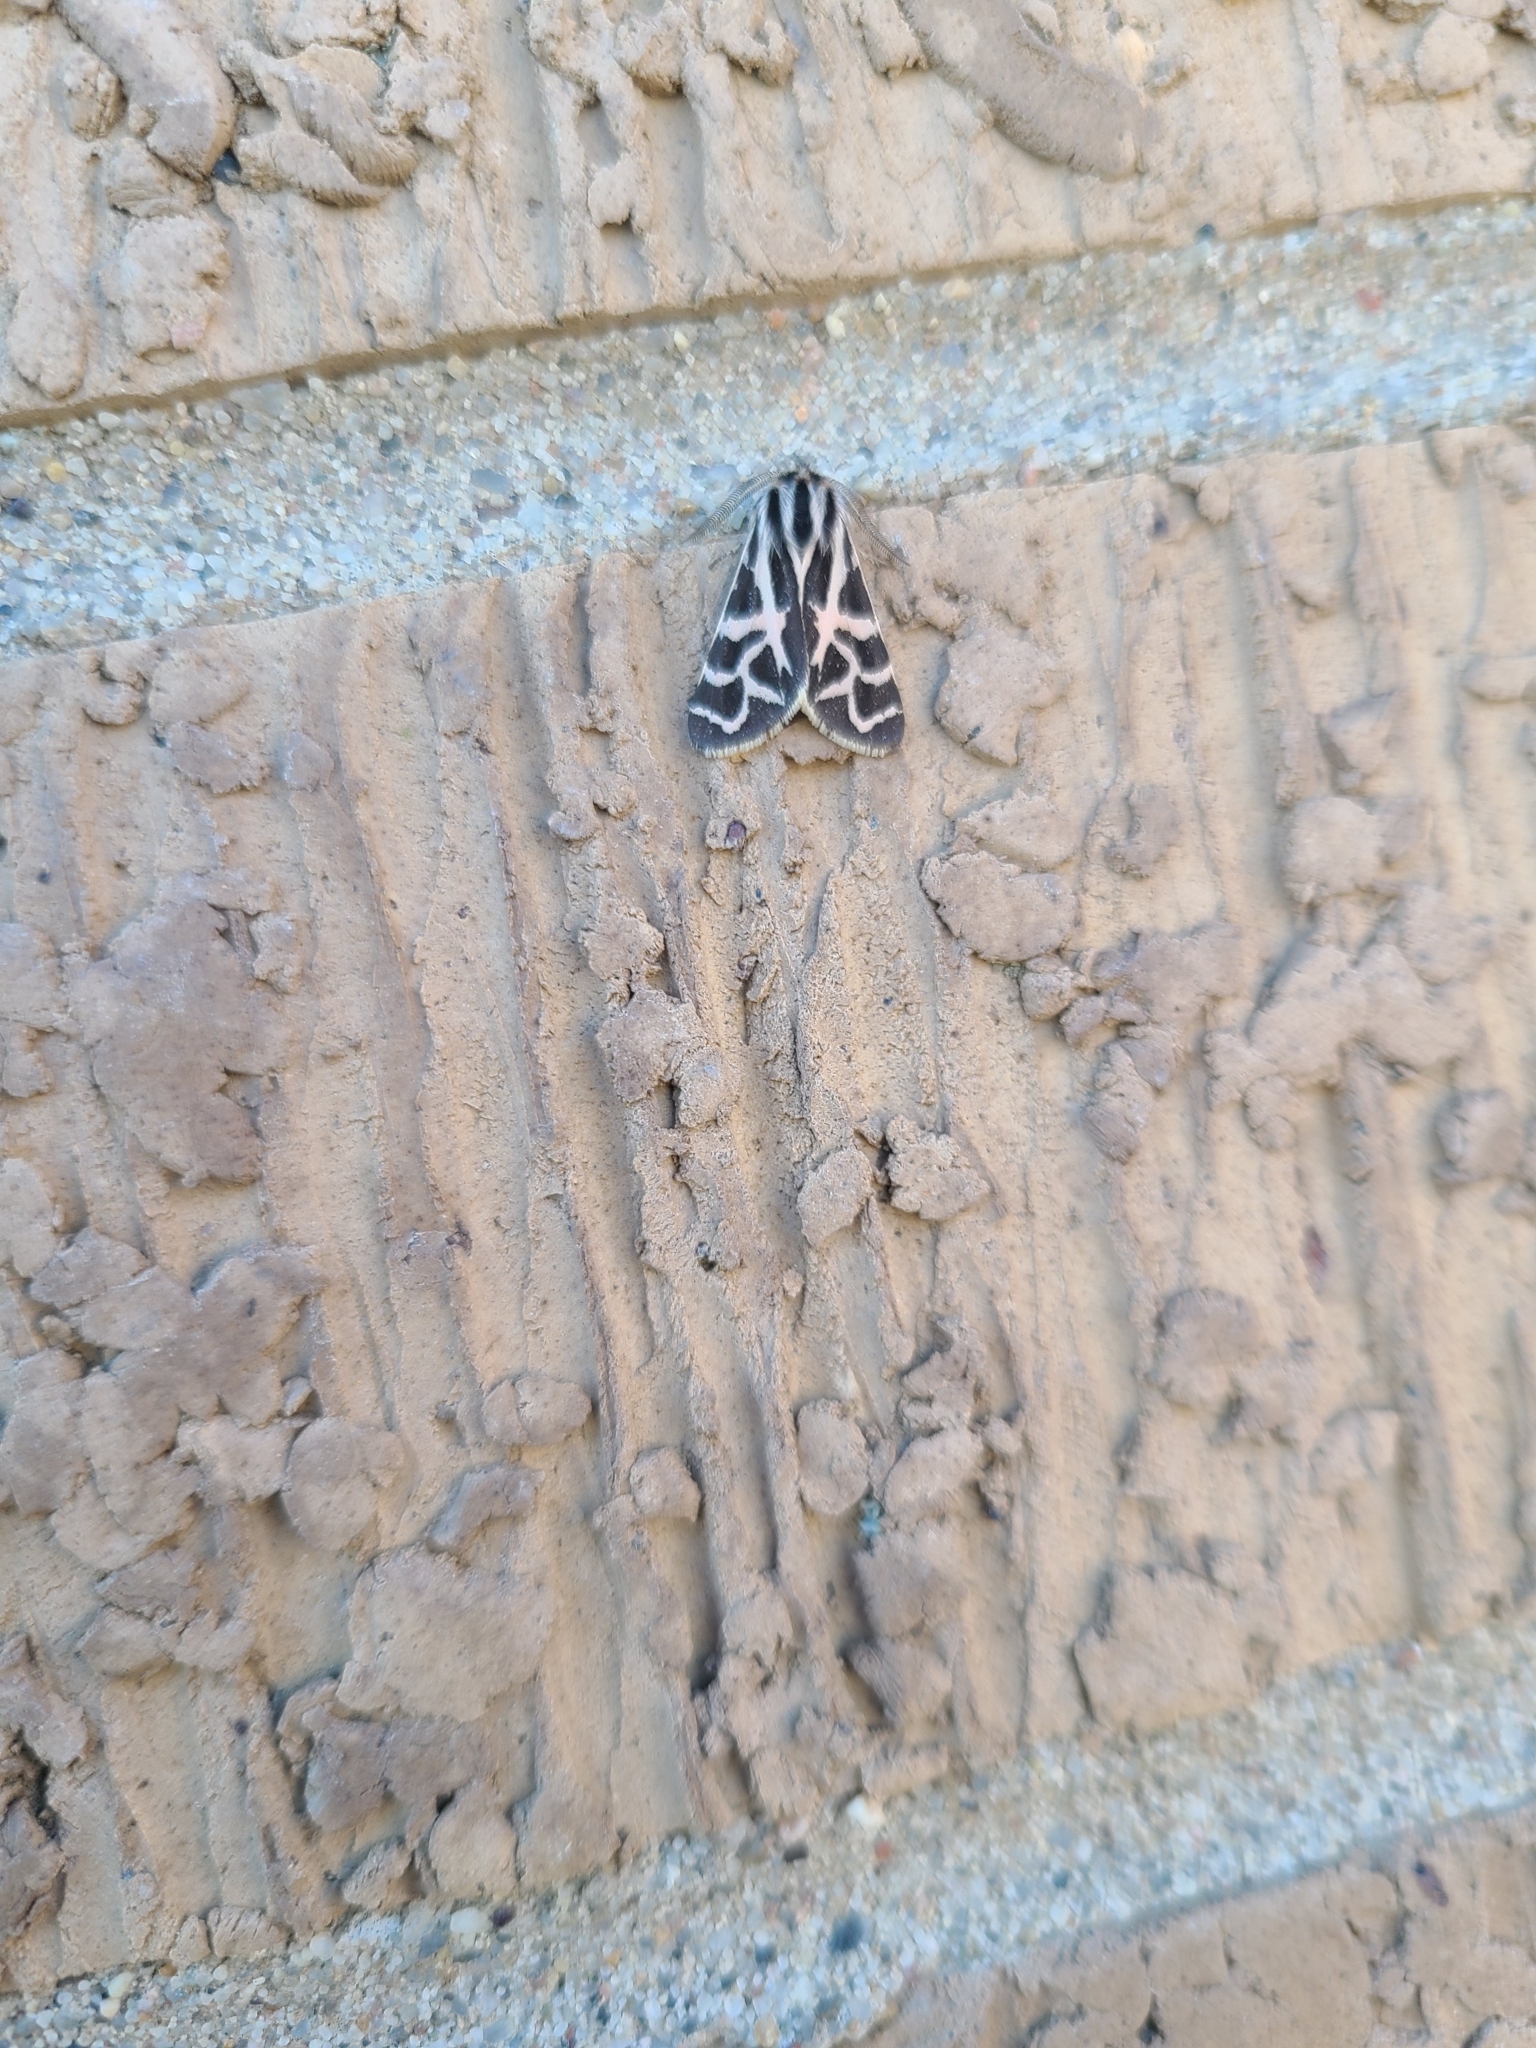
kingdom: Animalia
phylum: Arthropoda
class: Insecta
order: Lepidoptera
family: Erebidae
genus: Apantesis
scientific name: Apantesis
